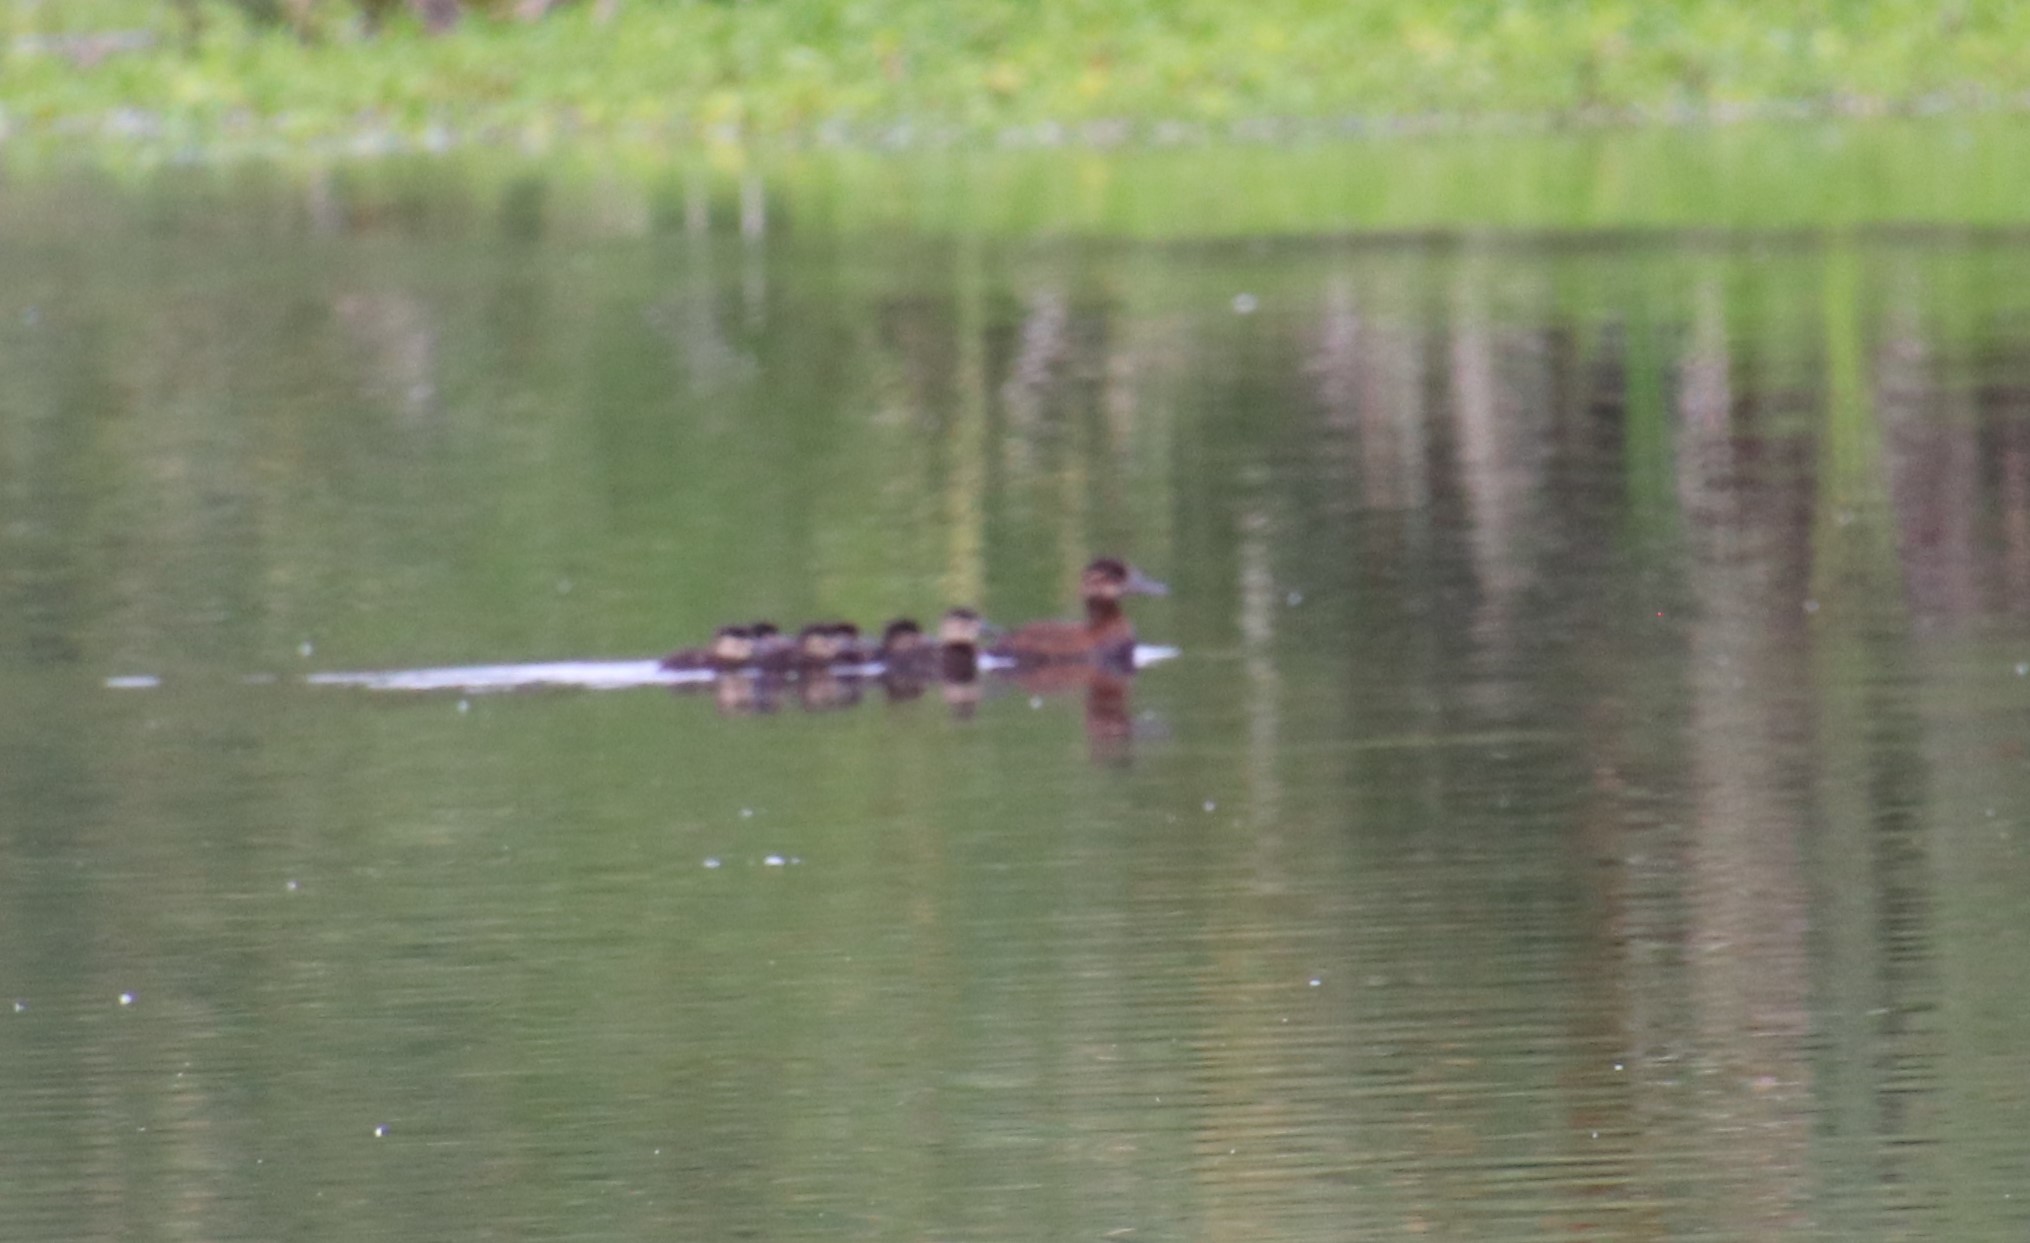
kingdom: Animalia
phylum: Chordata
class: Aves
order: Anseriformes
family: Anatidae
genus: Oxyura
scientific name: Oxyura jamaicensis
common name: Ruddy duck
